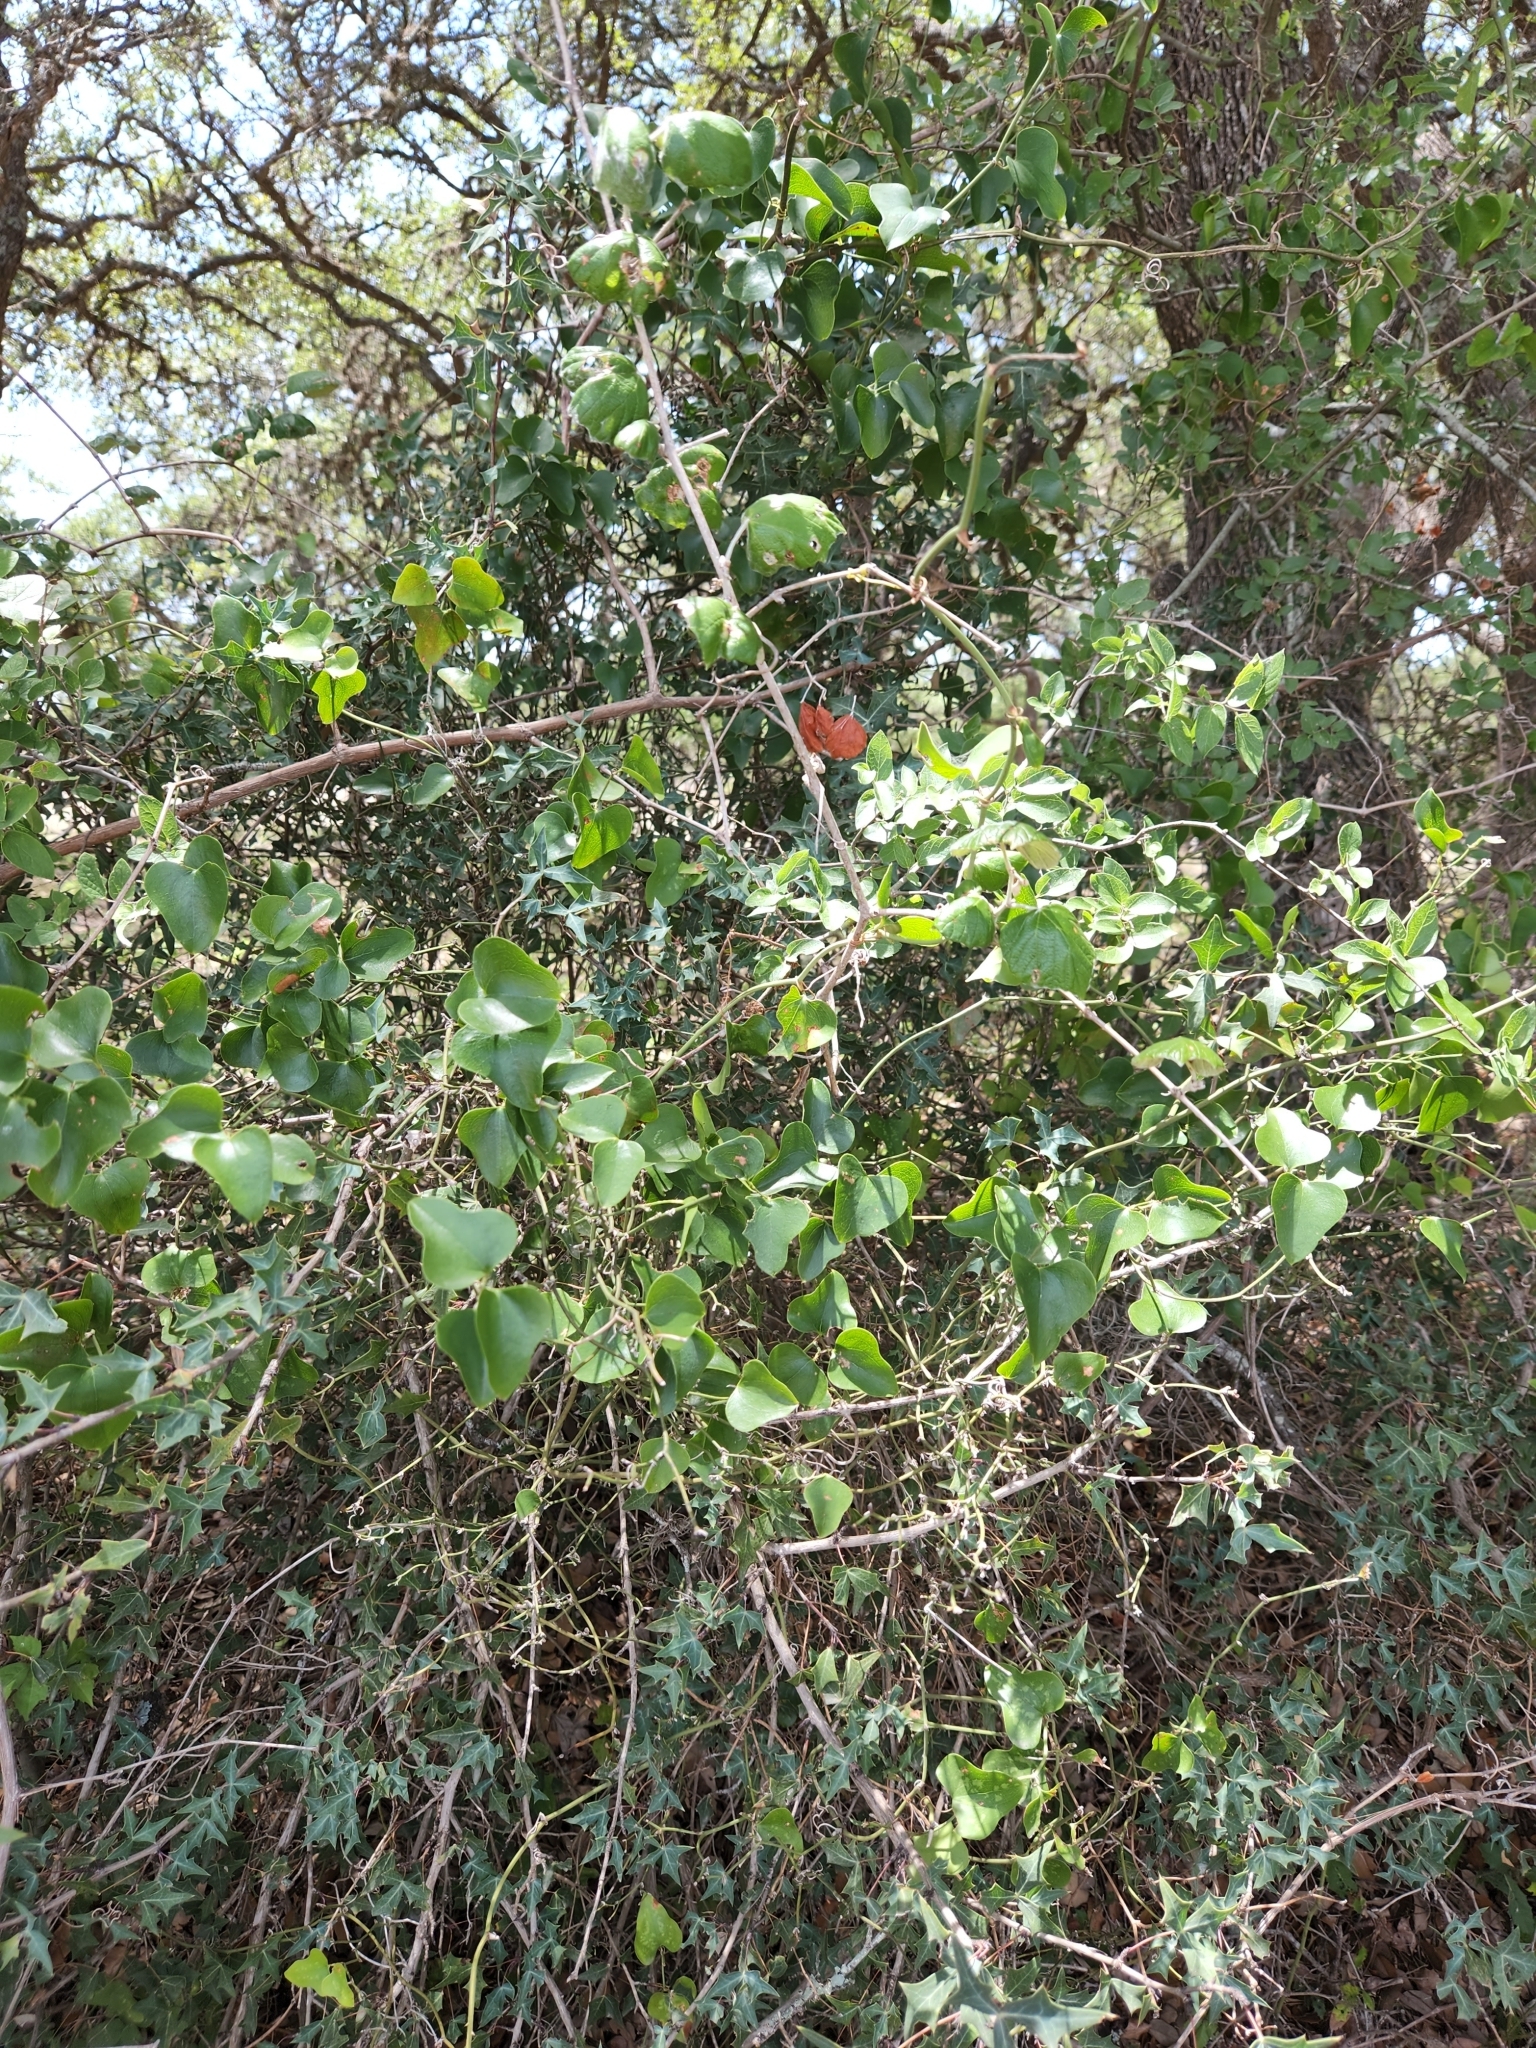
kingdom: Plantae
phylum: Tracheophyta
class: Magnoliopsida
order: Ranunculales
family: Menispermaceae
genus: Cocculus
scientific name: Cocculus carolinus
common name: Carolina moonseed
